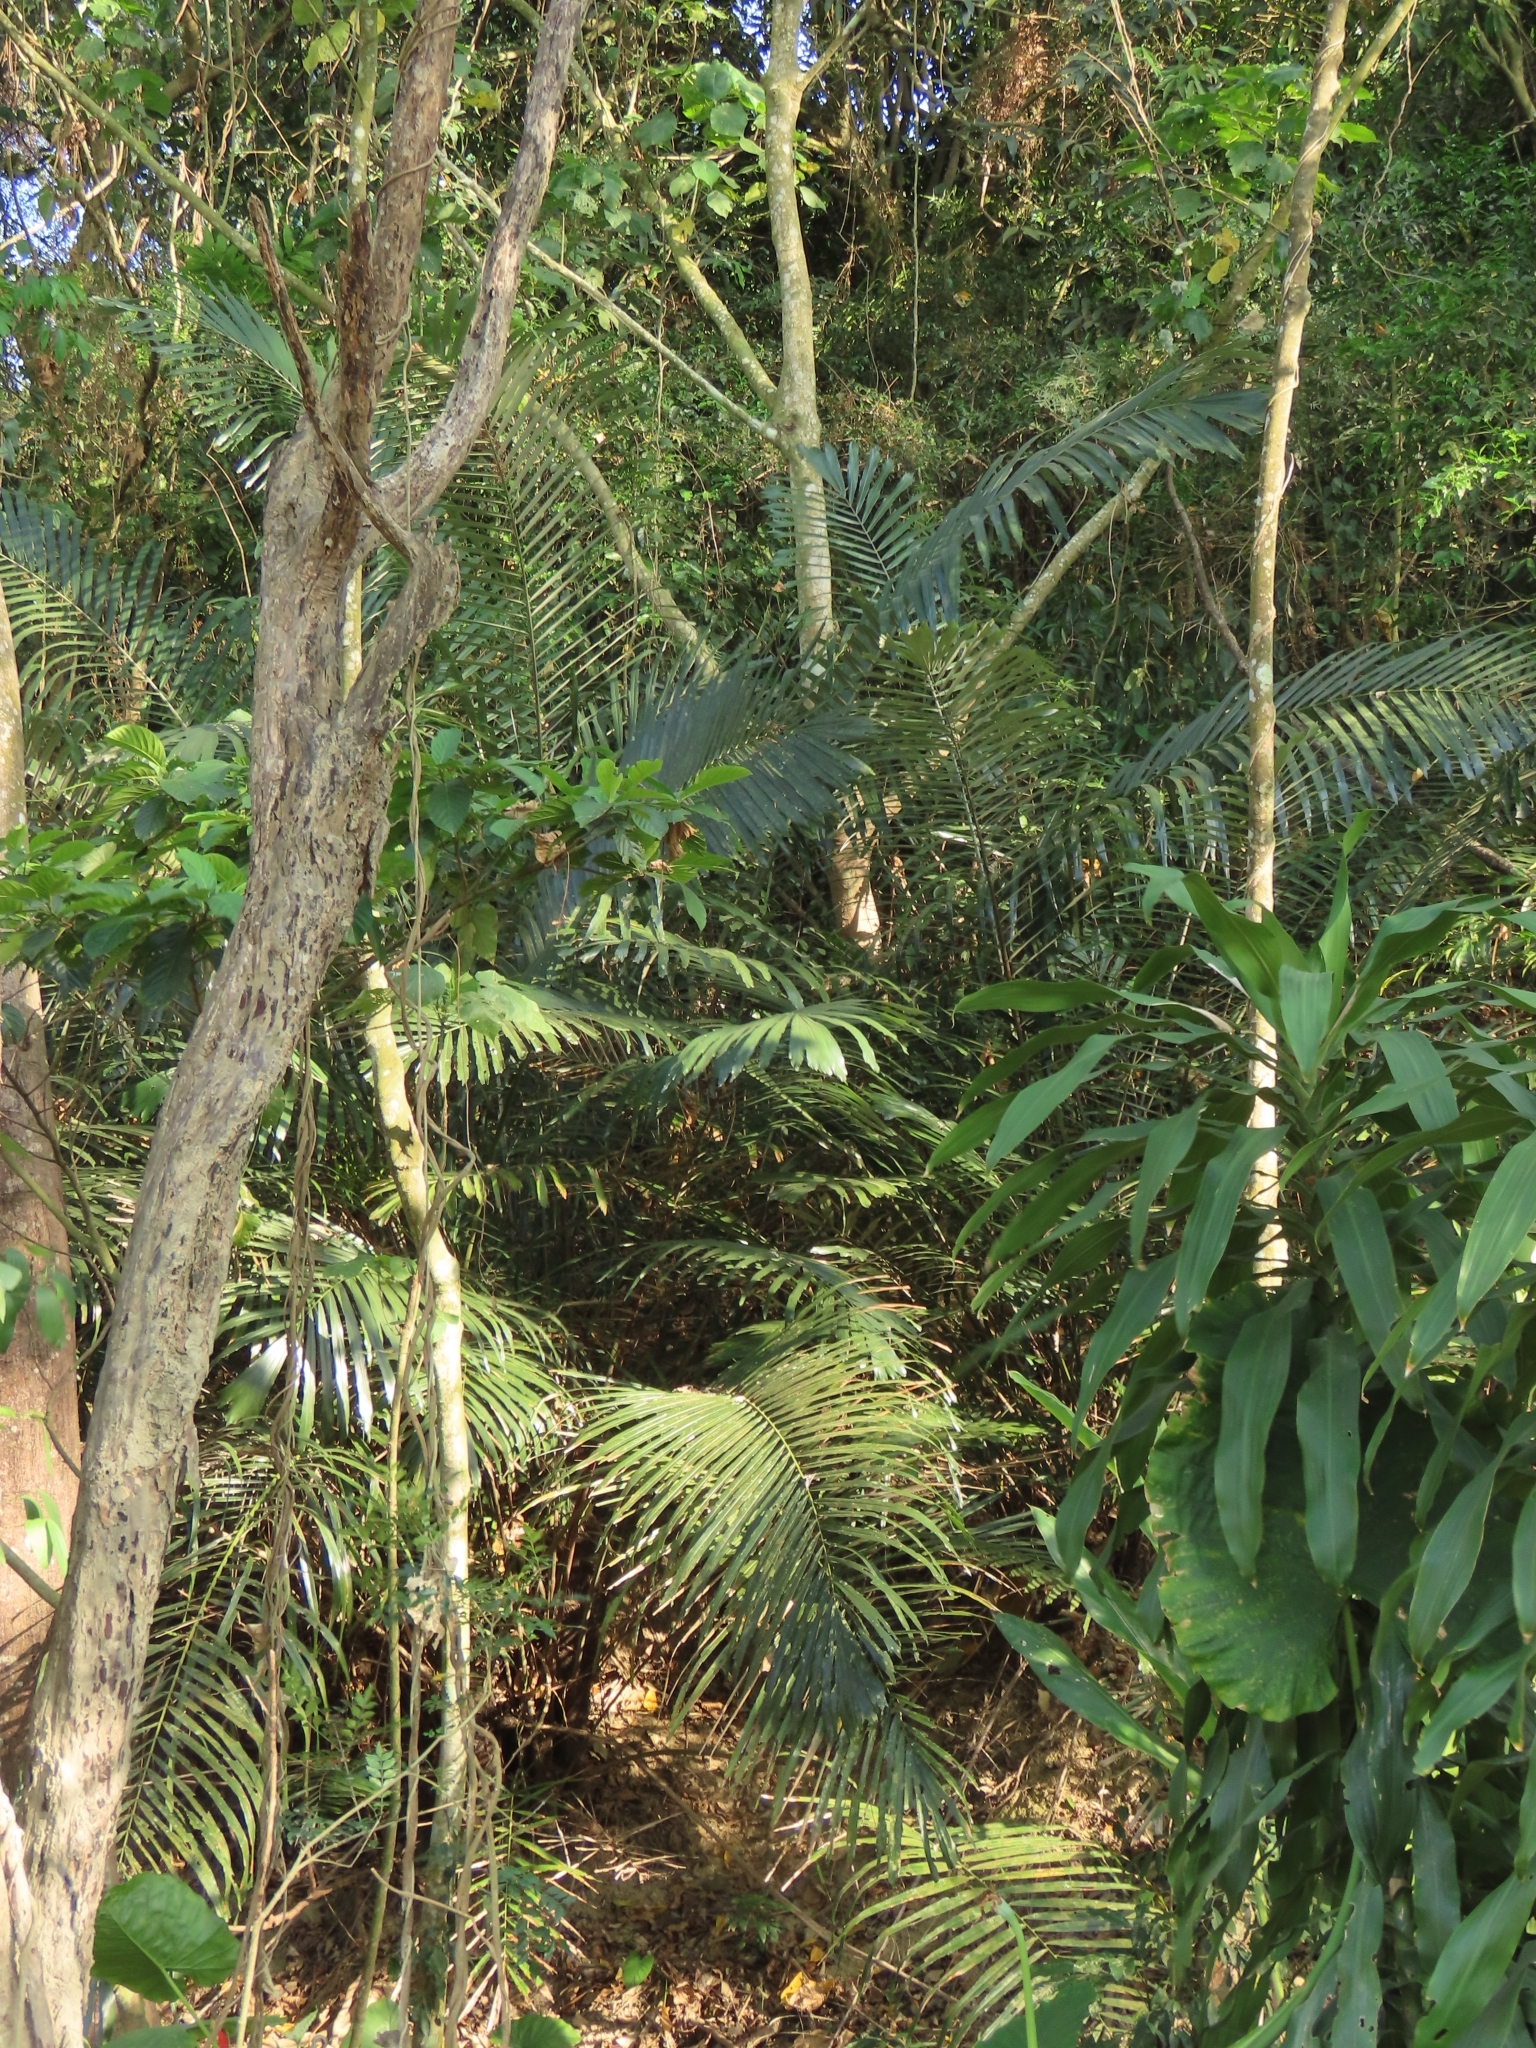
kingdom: Plantae
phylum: Tracheophyta
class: Liliopsida
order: Arecales
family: Arecaceae
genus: Arenga
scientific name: Arenga engleri
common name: Formosan sugar palm
